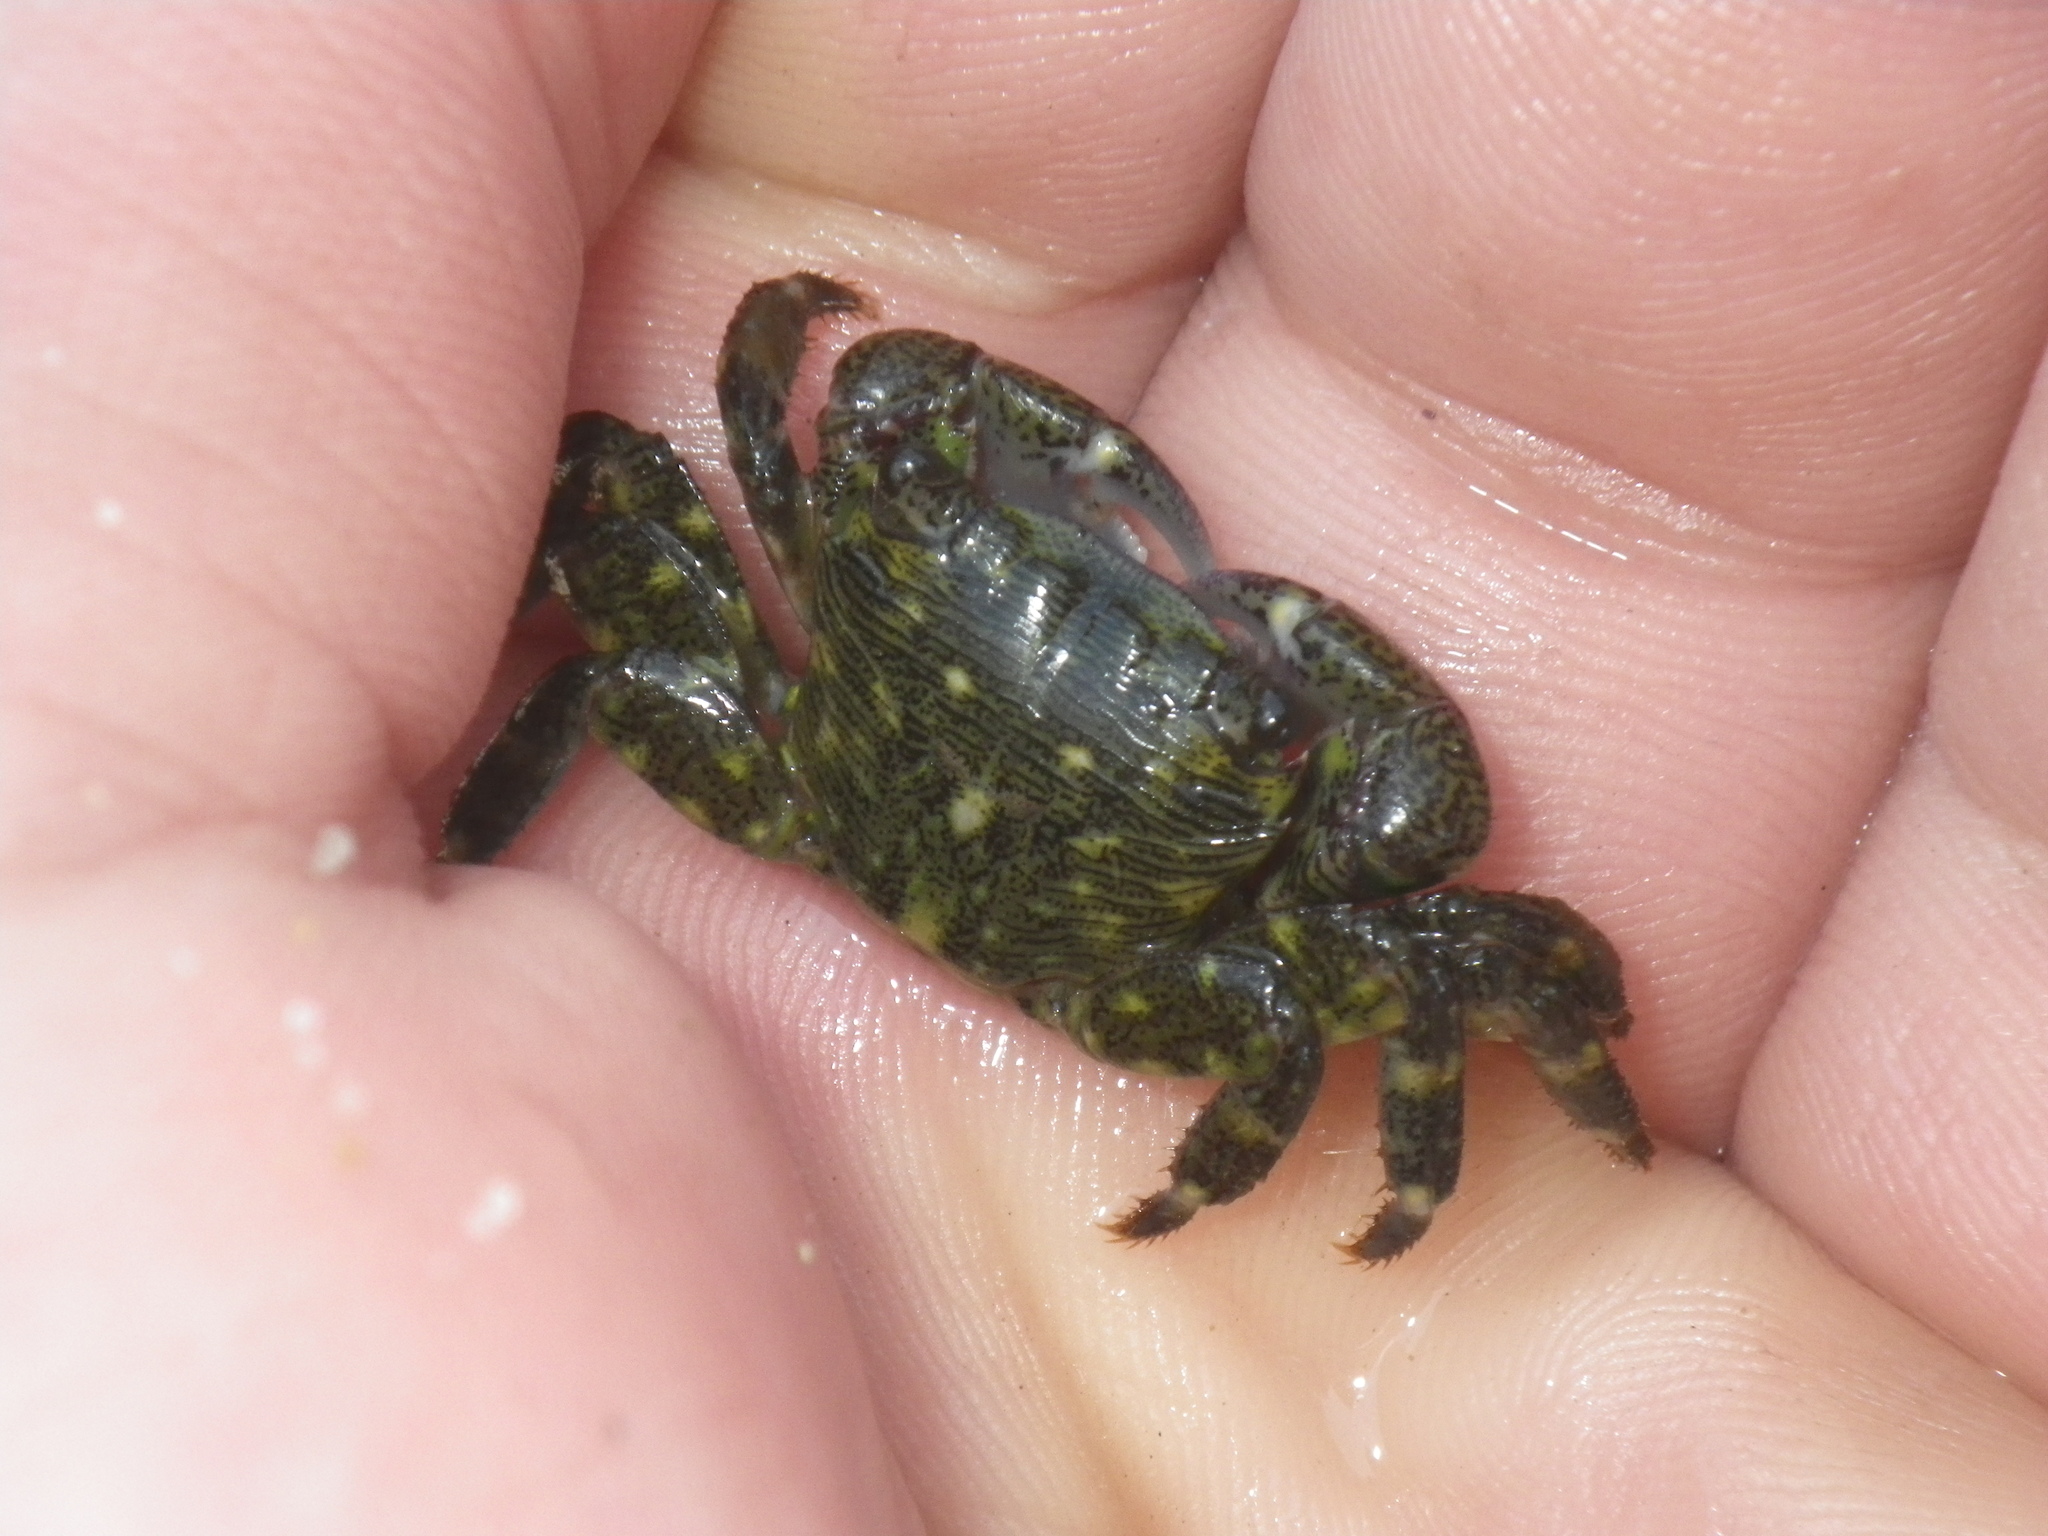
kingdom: Animalia
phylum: Arthropoda
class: Malacostraca
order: Decapoda
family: Grapsidae
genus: Pachygrapsus
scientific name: Pachygrapsus crassipes
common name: Striped shore crab
